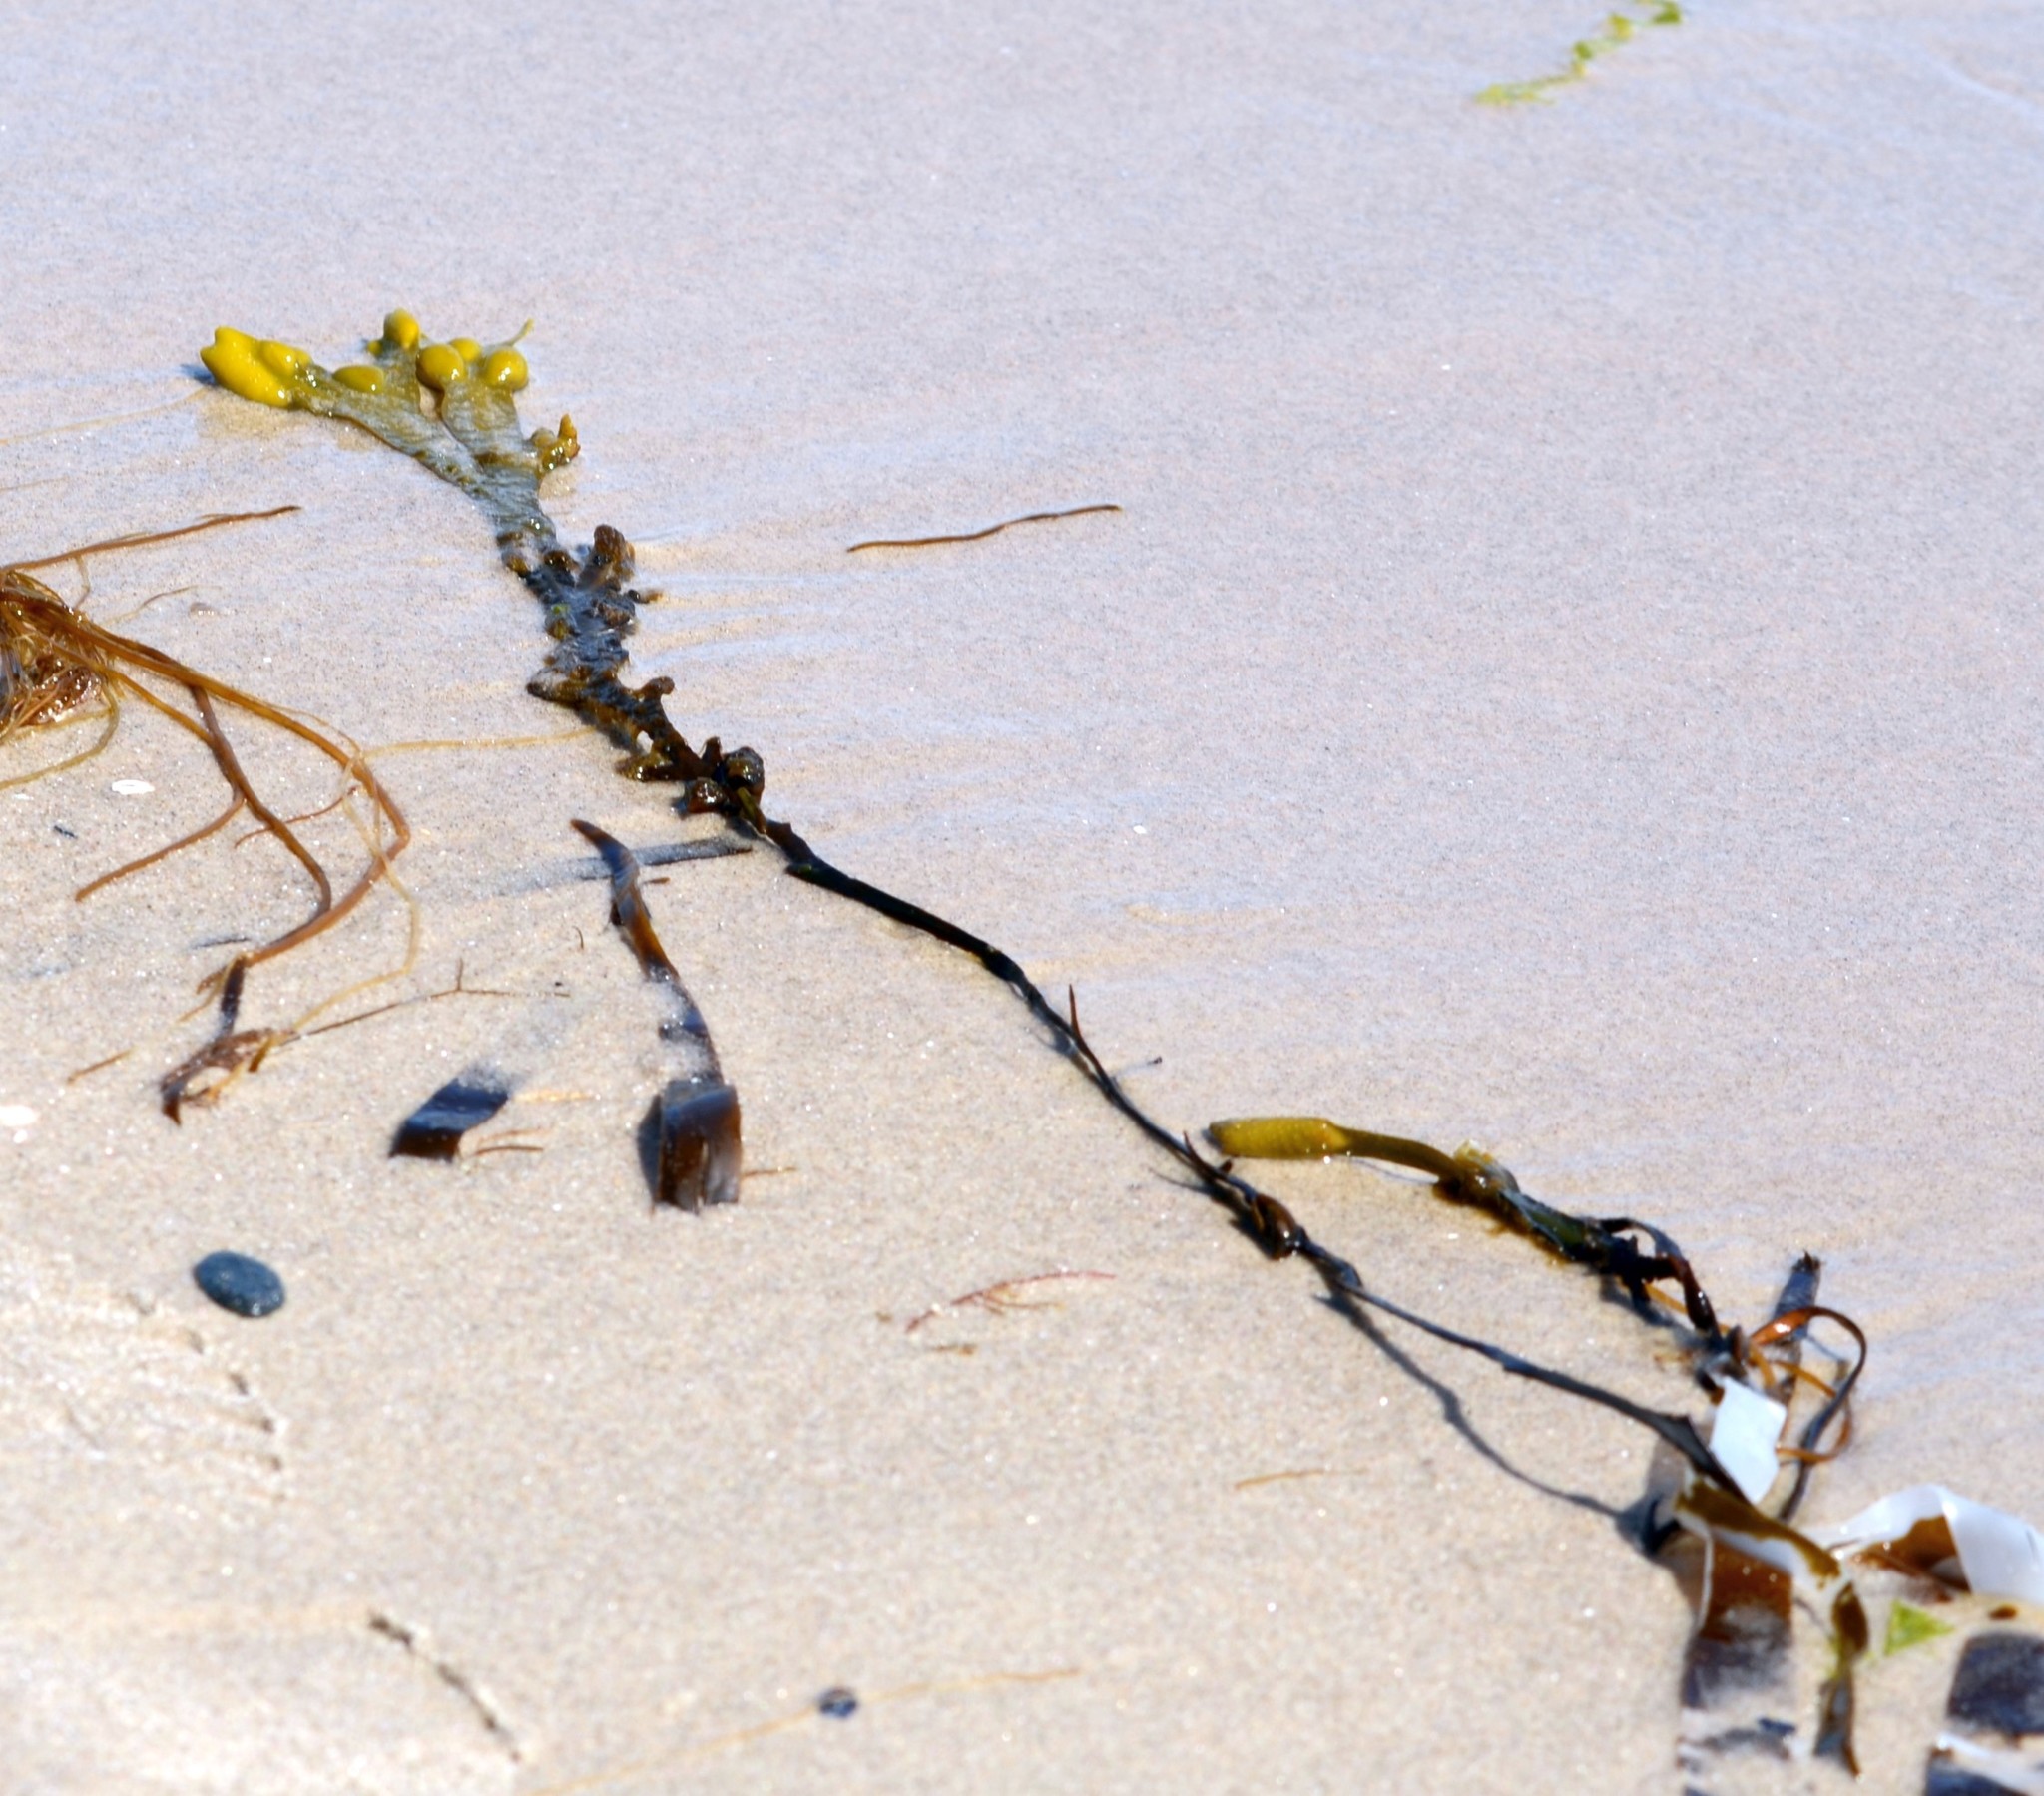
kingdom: Chromista
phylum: Ochrophyta
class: Phaeophyceae
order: Fucales
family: Fucaceae
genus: Fucus
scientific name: Fucus vesiculosus
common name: Bladder wrack
